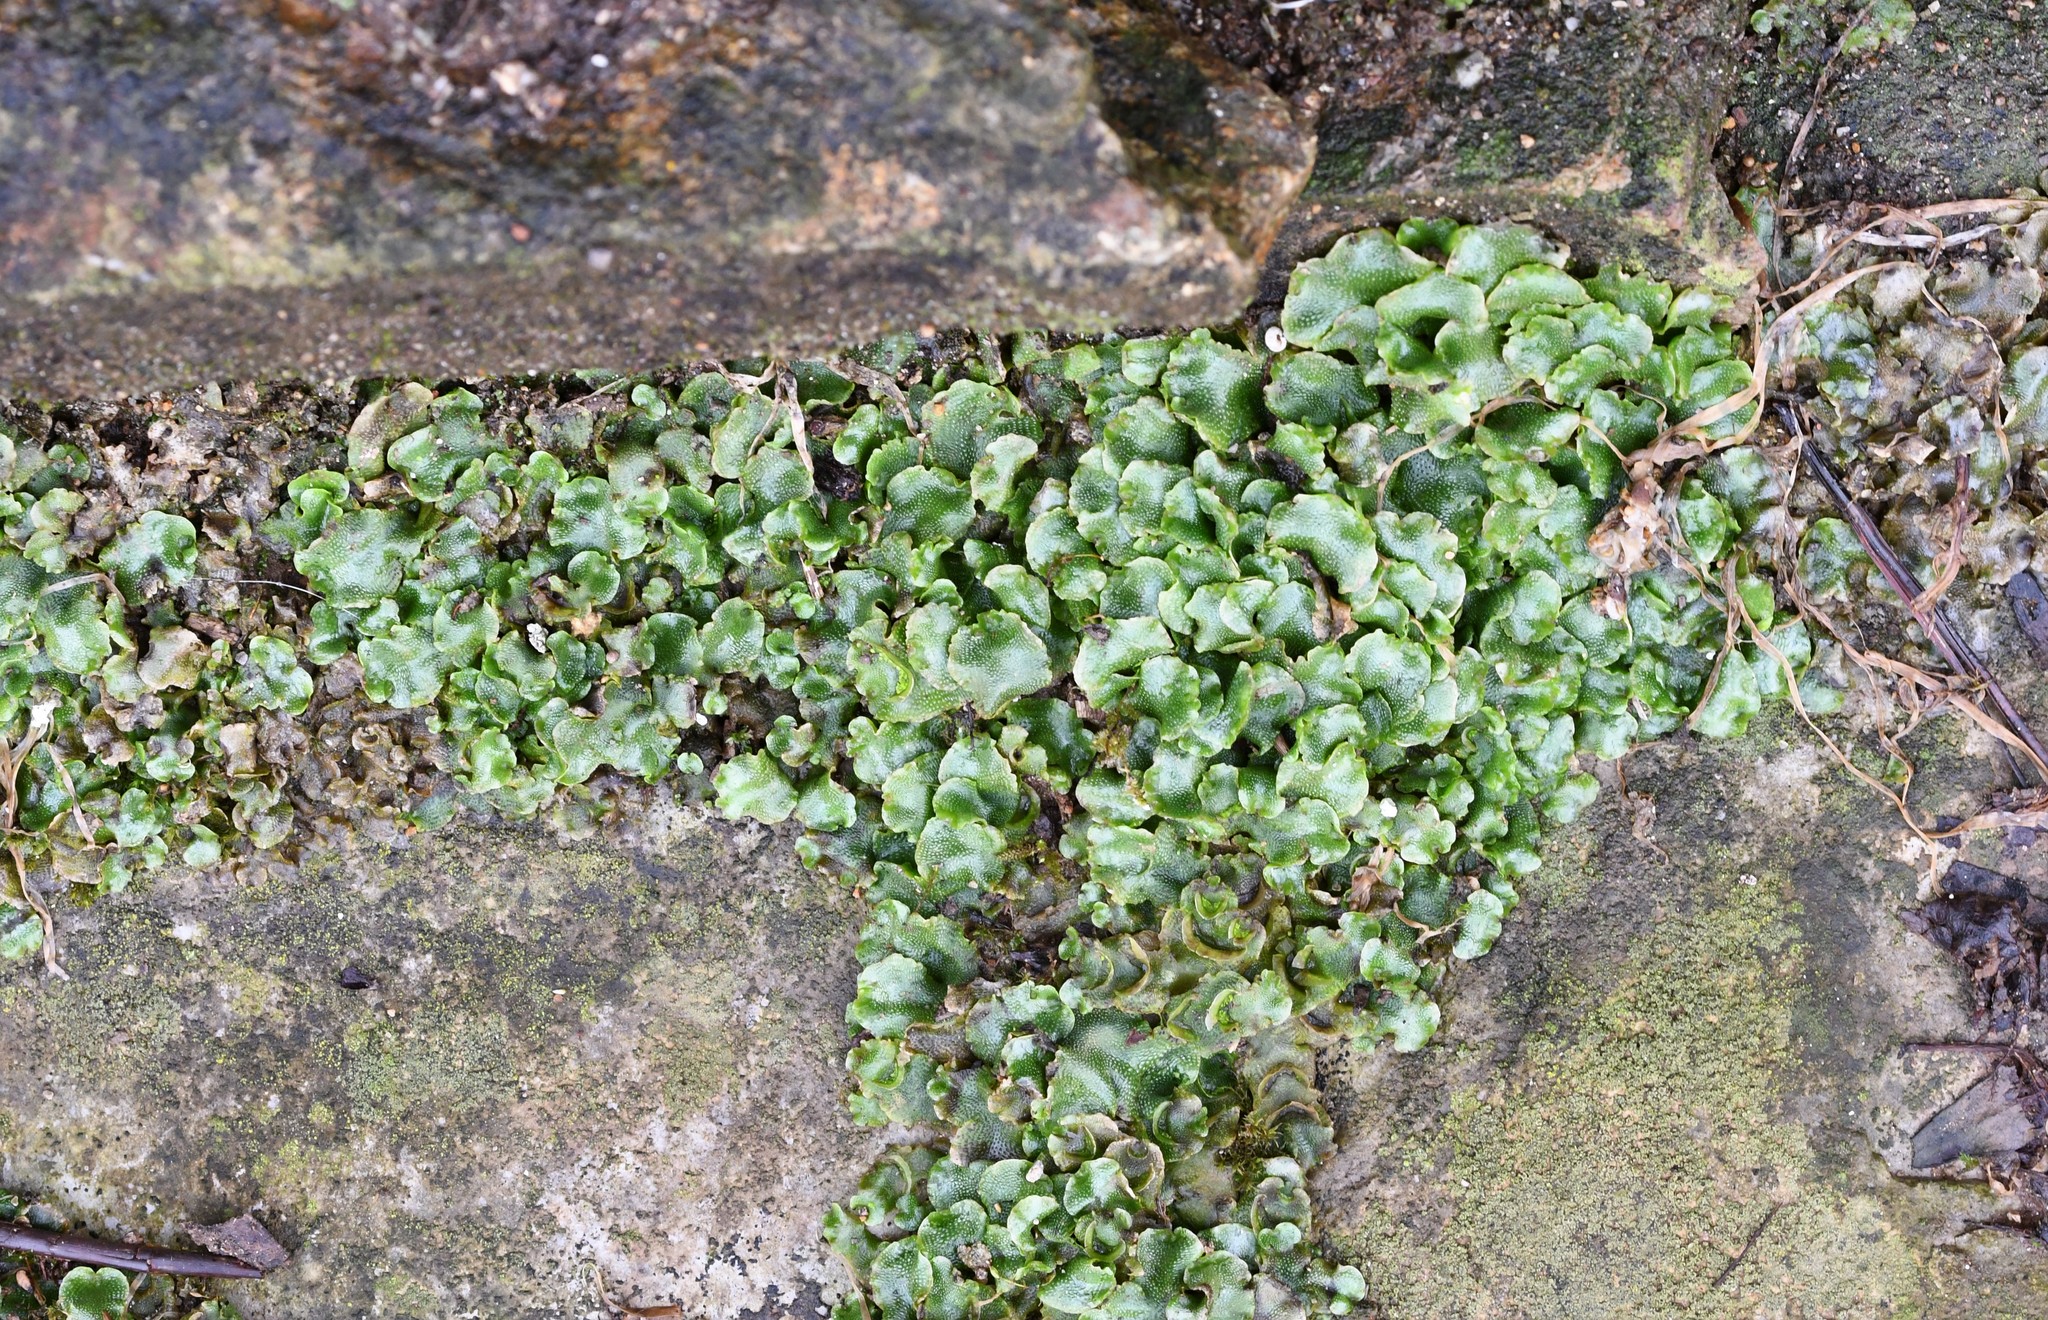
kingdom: Plantae
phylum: Marchantiophyta
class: Marchantiopsida
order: Lunulariales
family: Lunulariaceae
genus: Lunularia
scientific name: Lunularia cruciata
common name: Crescent-cup liverwort
